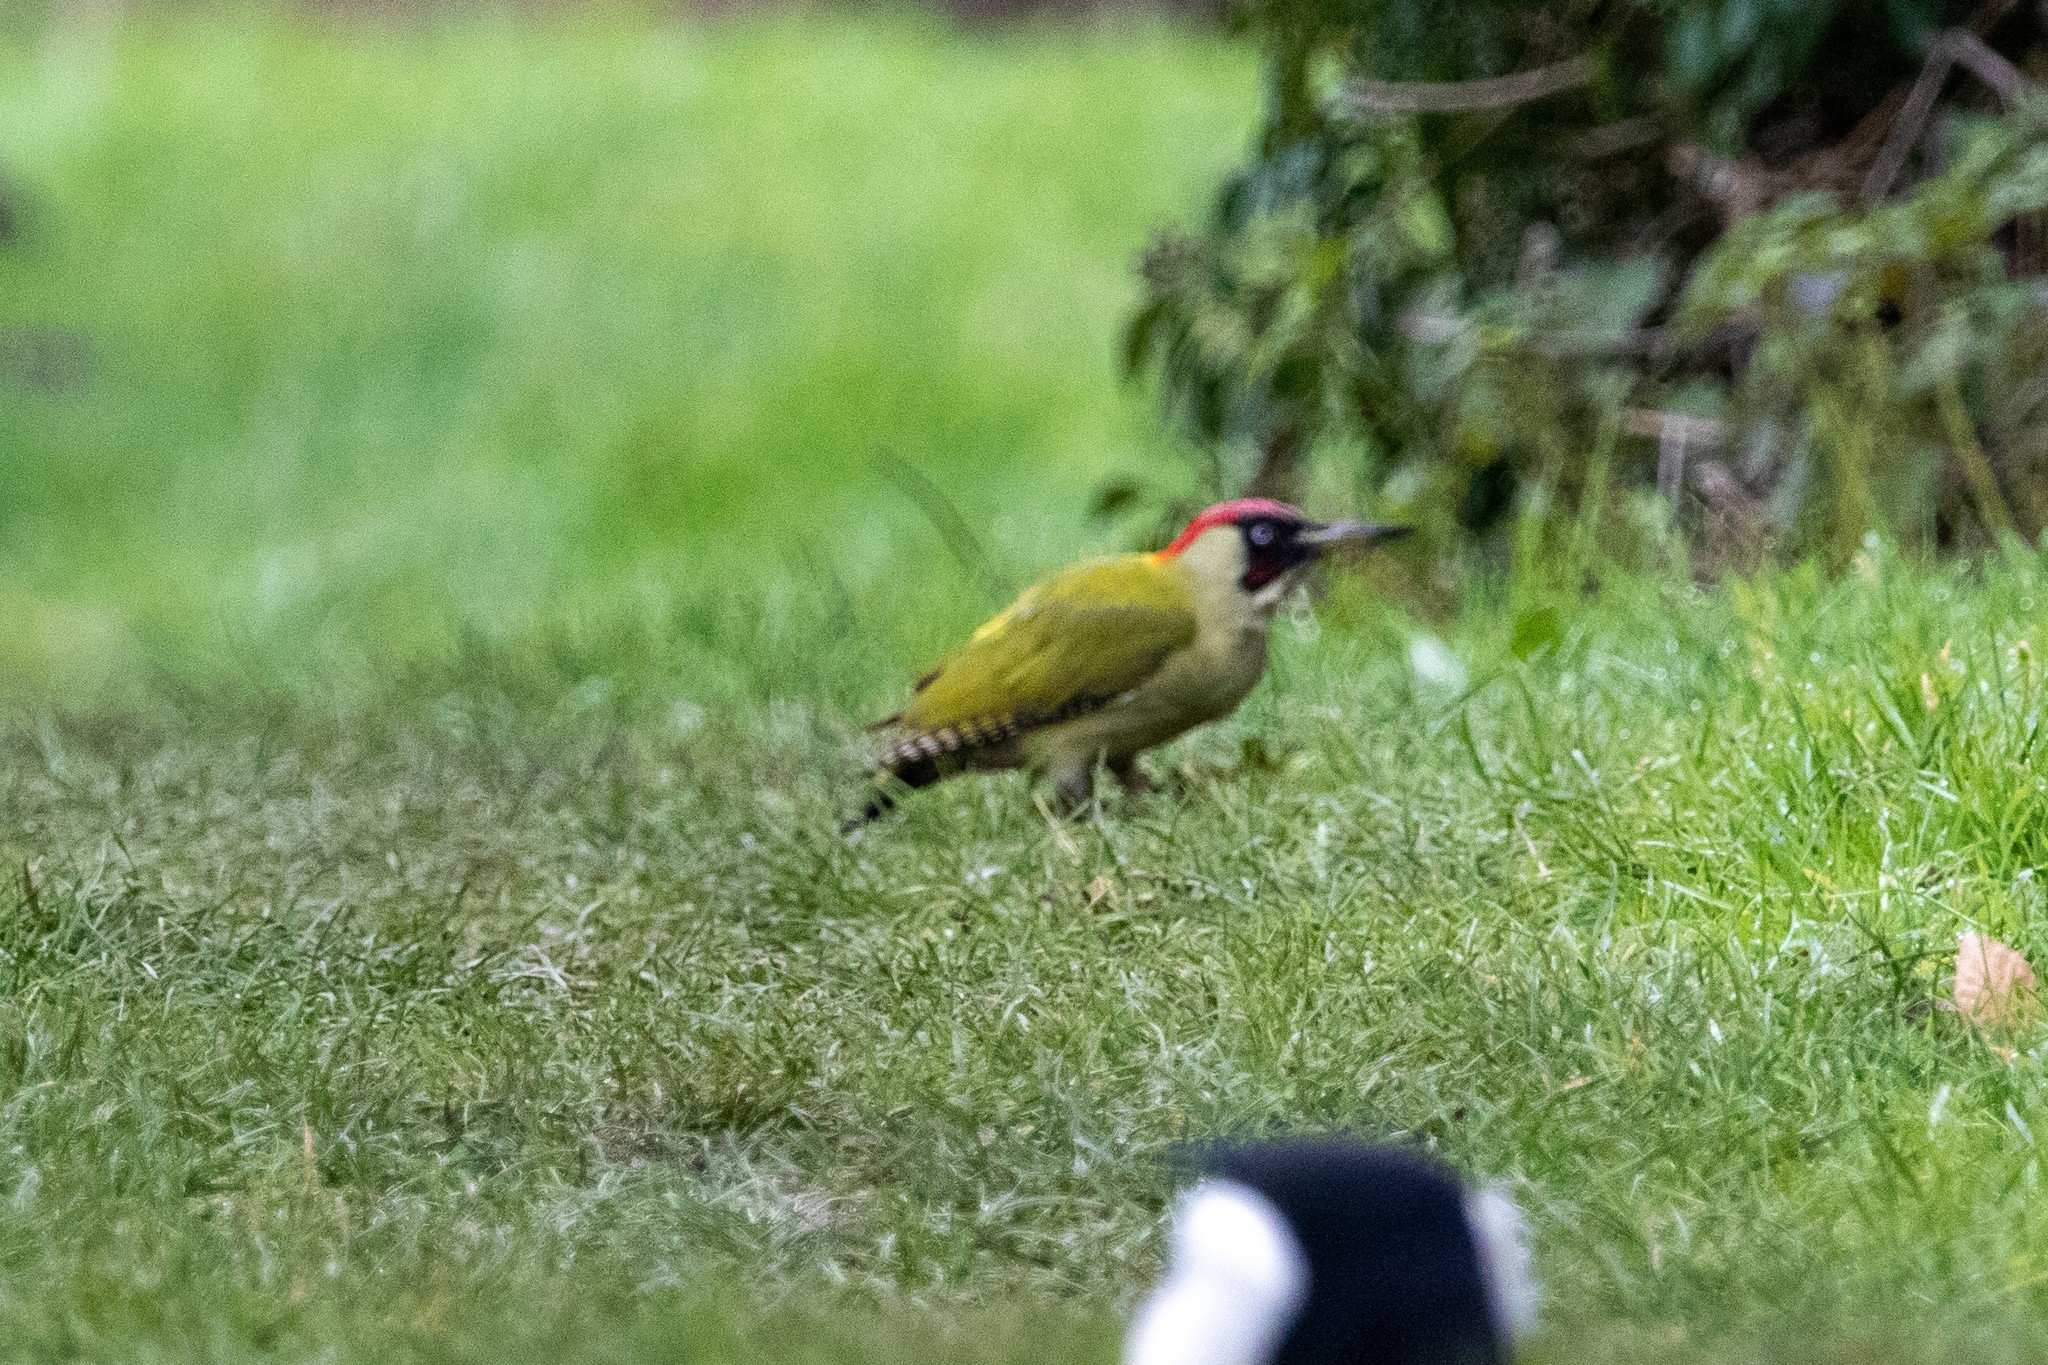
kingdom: Animalia
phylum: Chordata
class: Aves
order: Piciformes
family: Picidae
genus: Picus
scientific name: Picus viridis
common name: European green woodpecker
